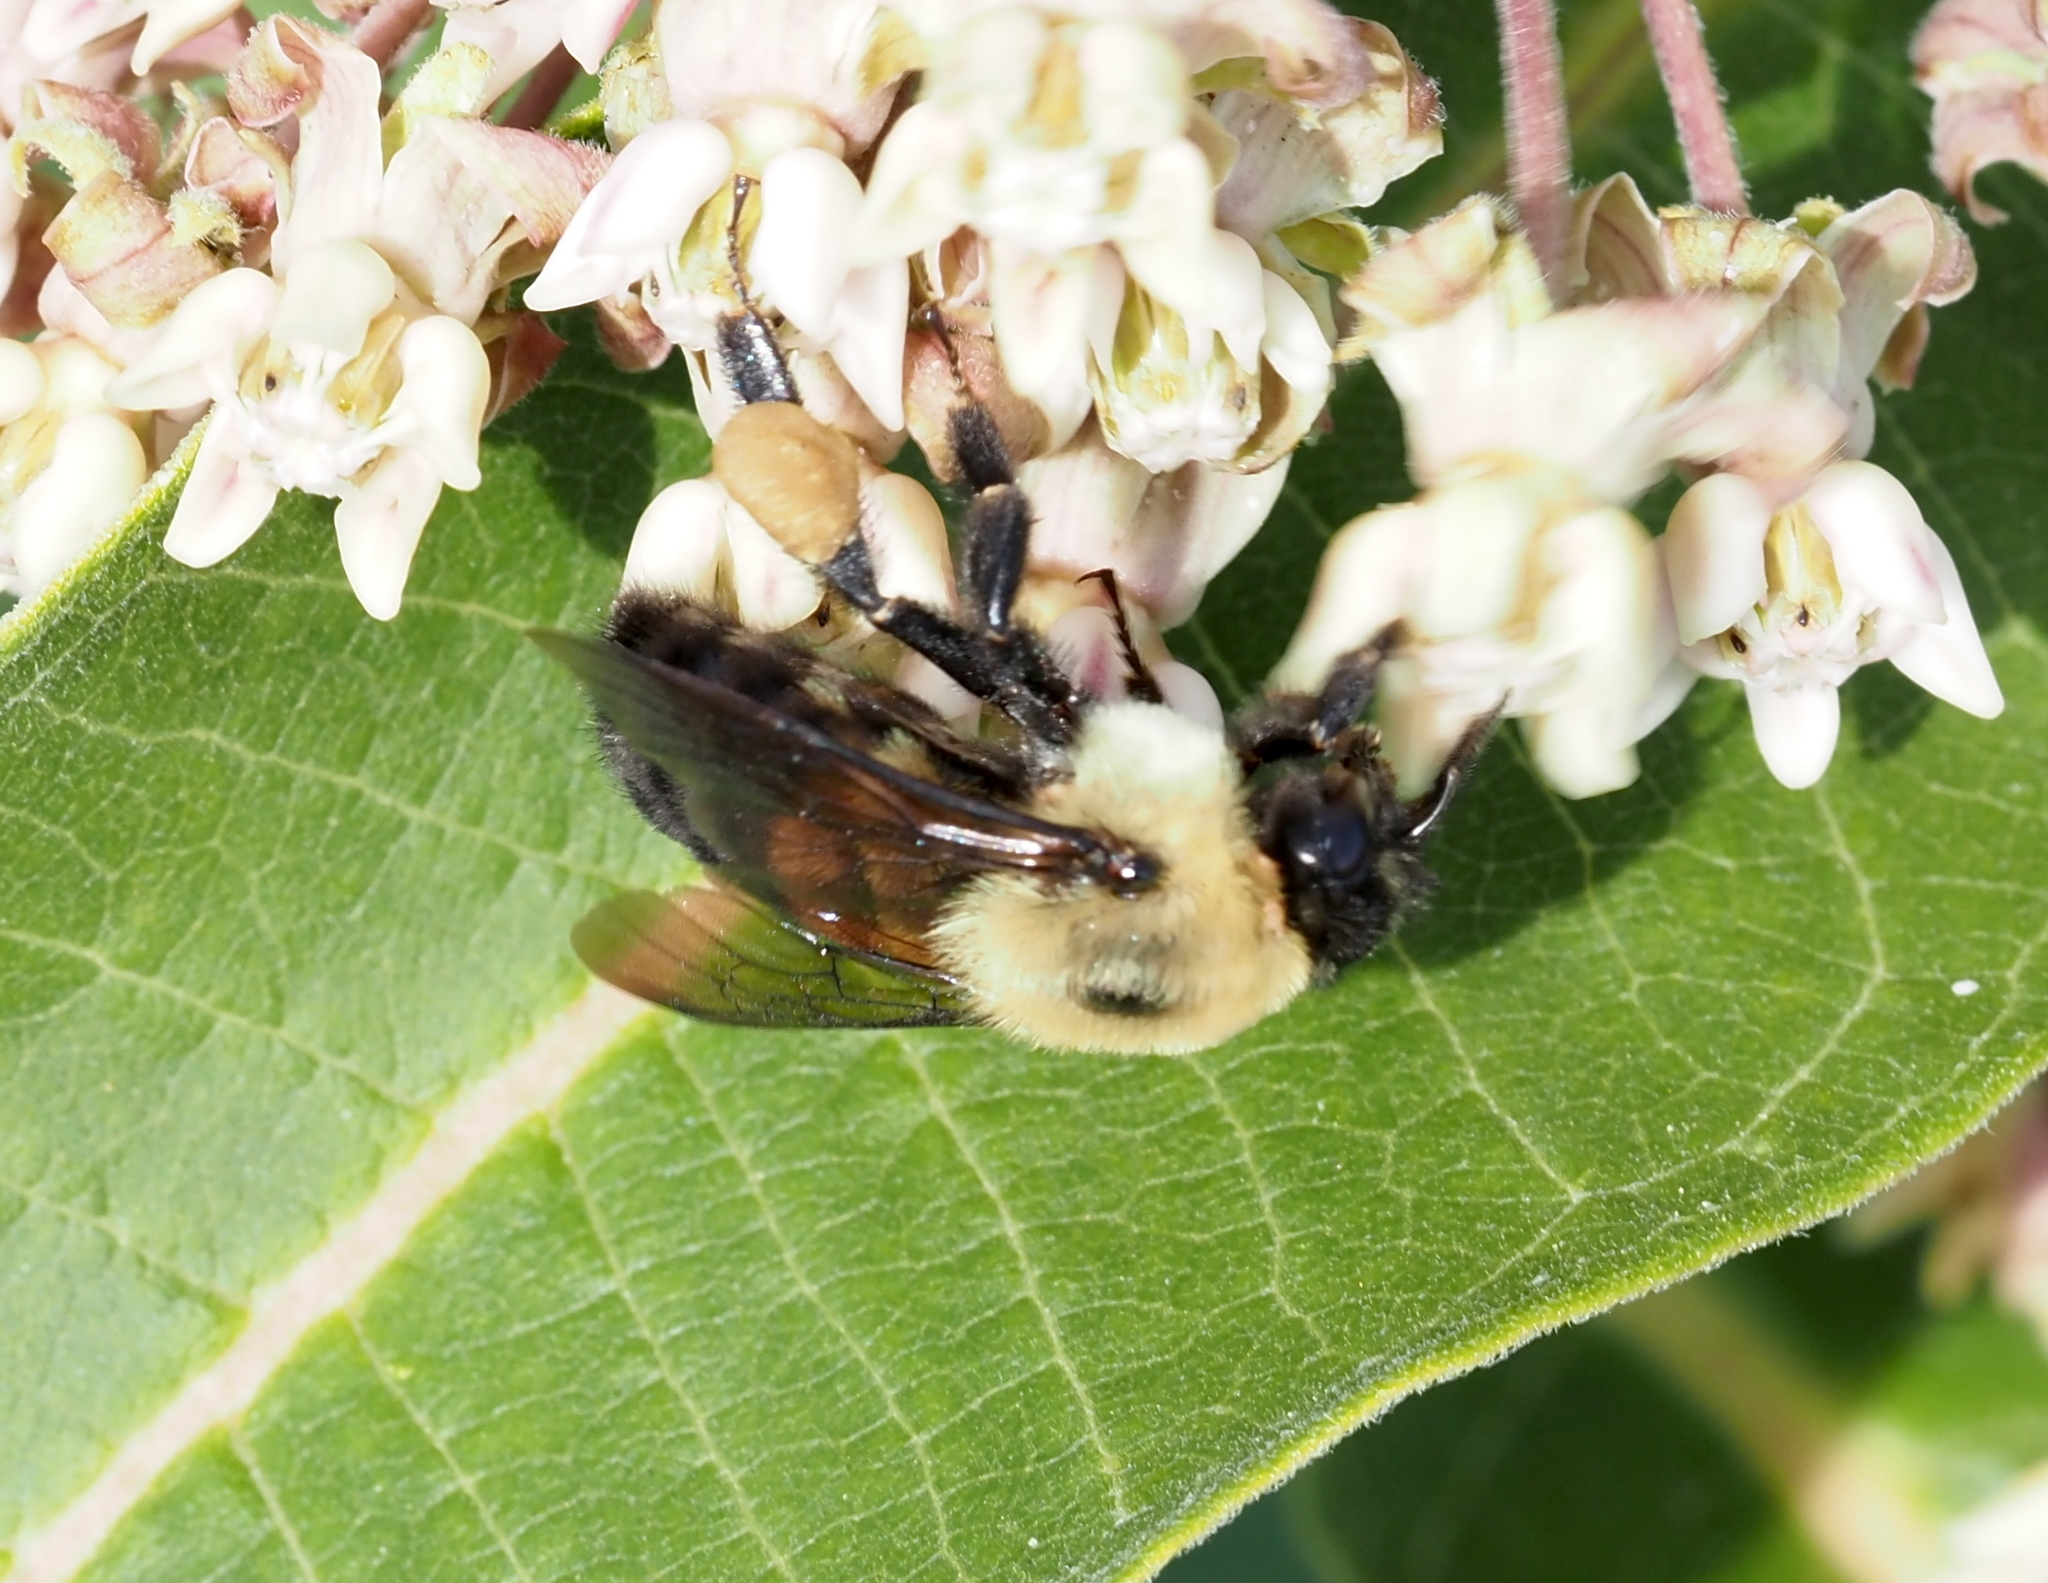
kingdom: Animalia
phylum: Arthropoda
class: Insecta
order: Hymenoptera
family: Apidae
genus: Bombus
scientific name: Bombus griseocollis
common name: Brown-belted bumble bee
